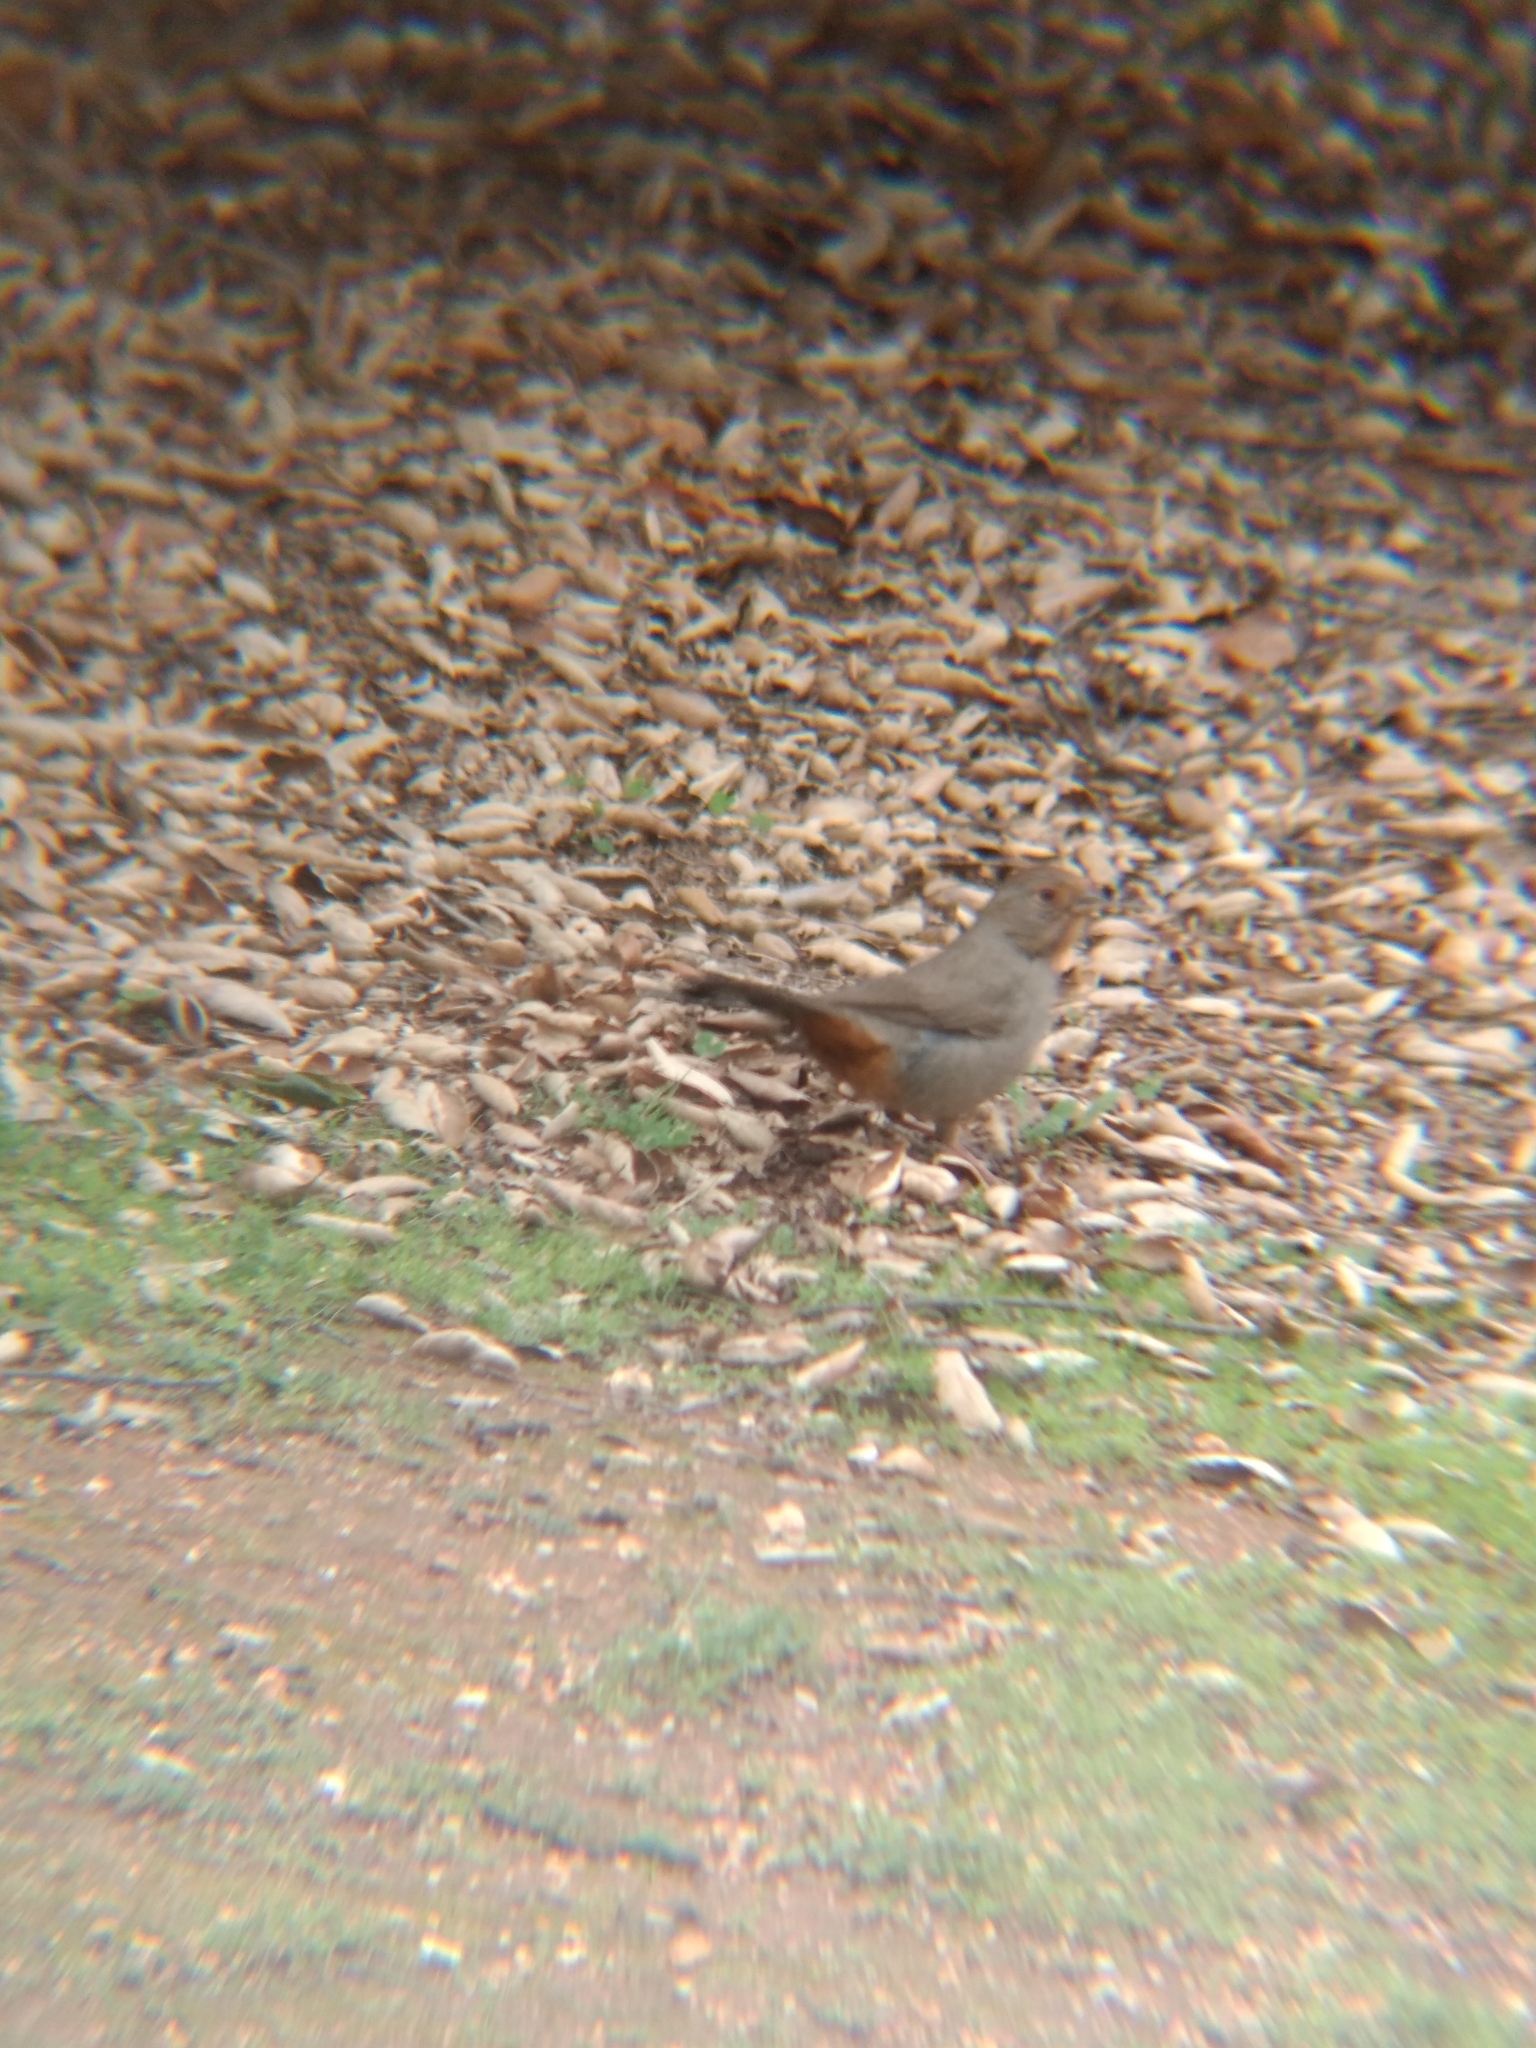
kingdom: Animalia
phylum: Chordata
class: Aves
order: Passeriformes
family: Passerellidae
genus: Melozone
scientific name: Melozone crissalis
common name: California towhee
